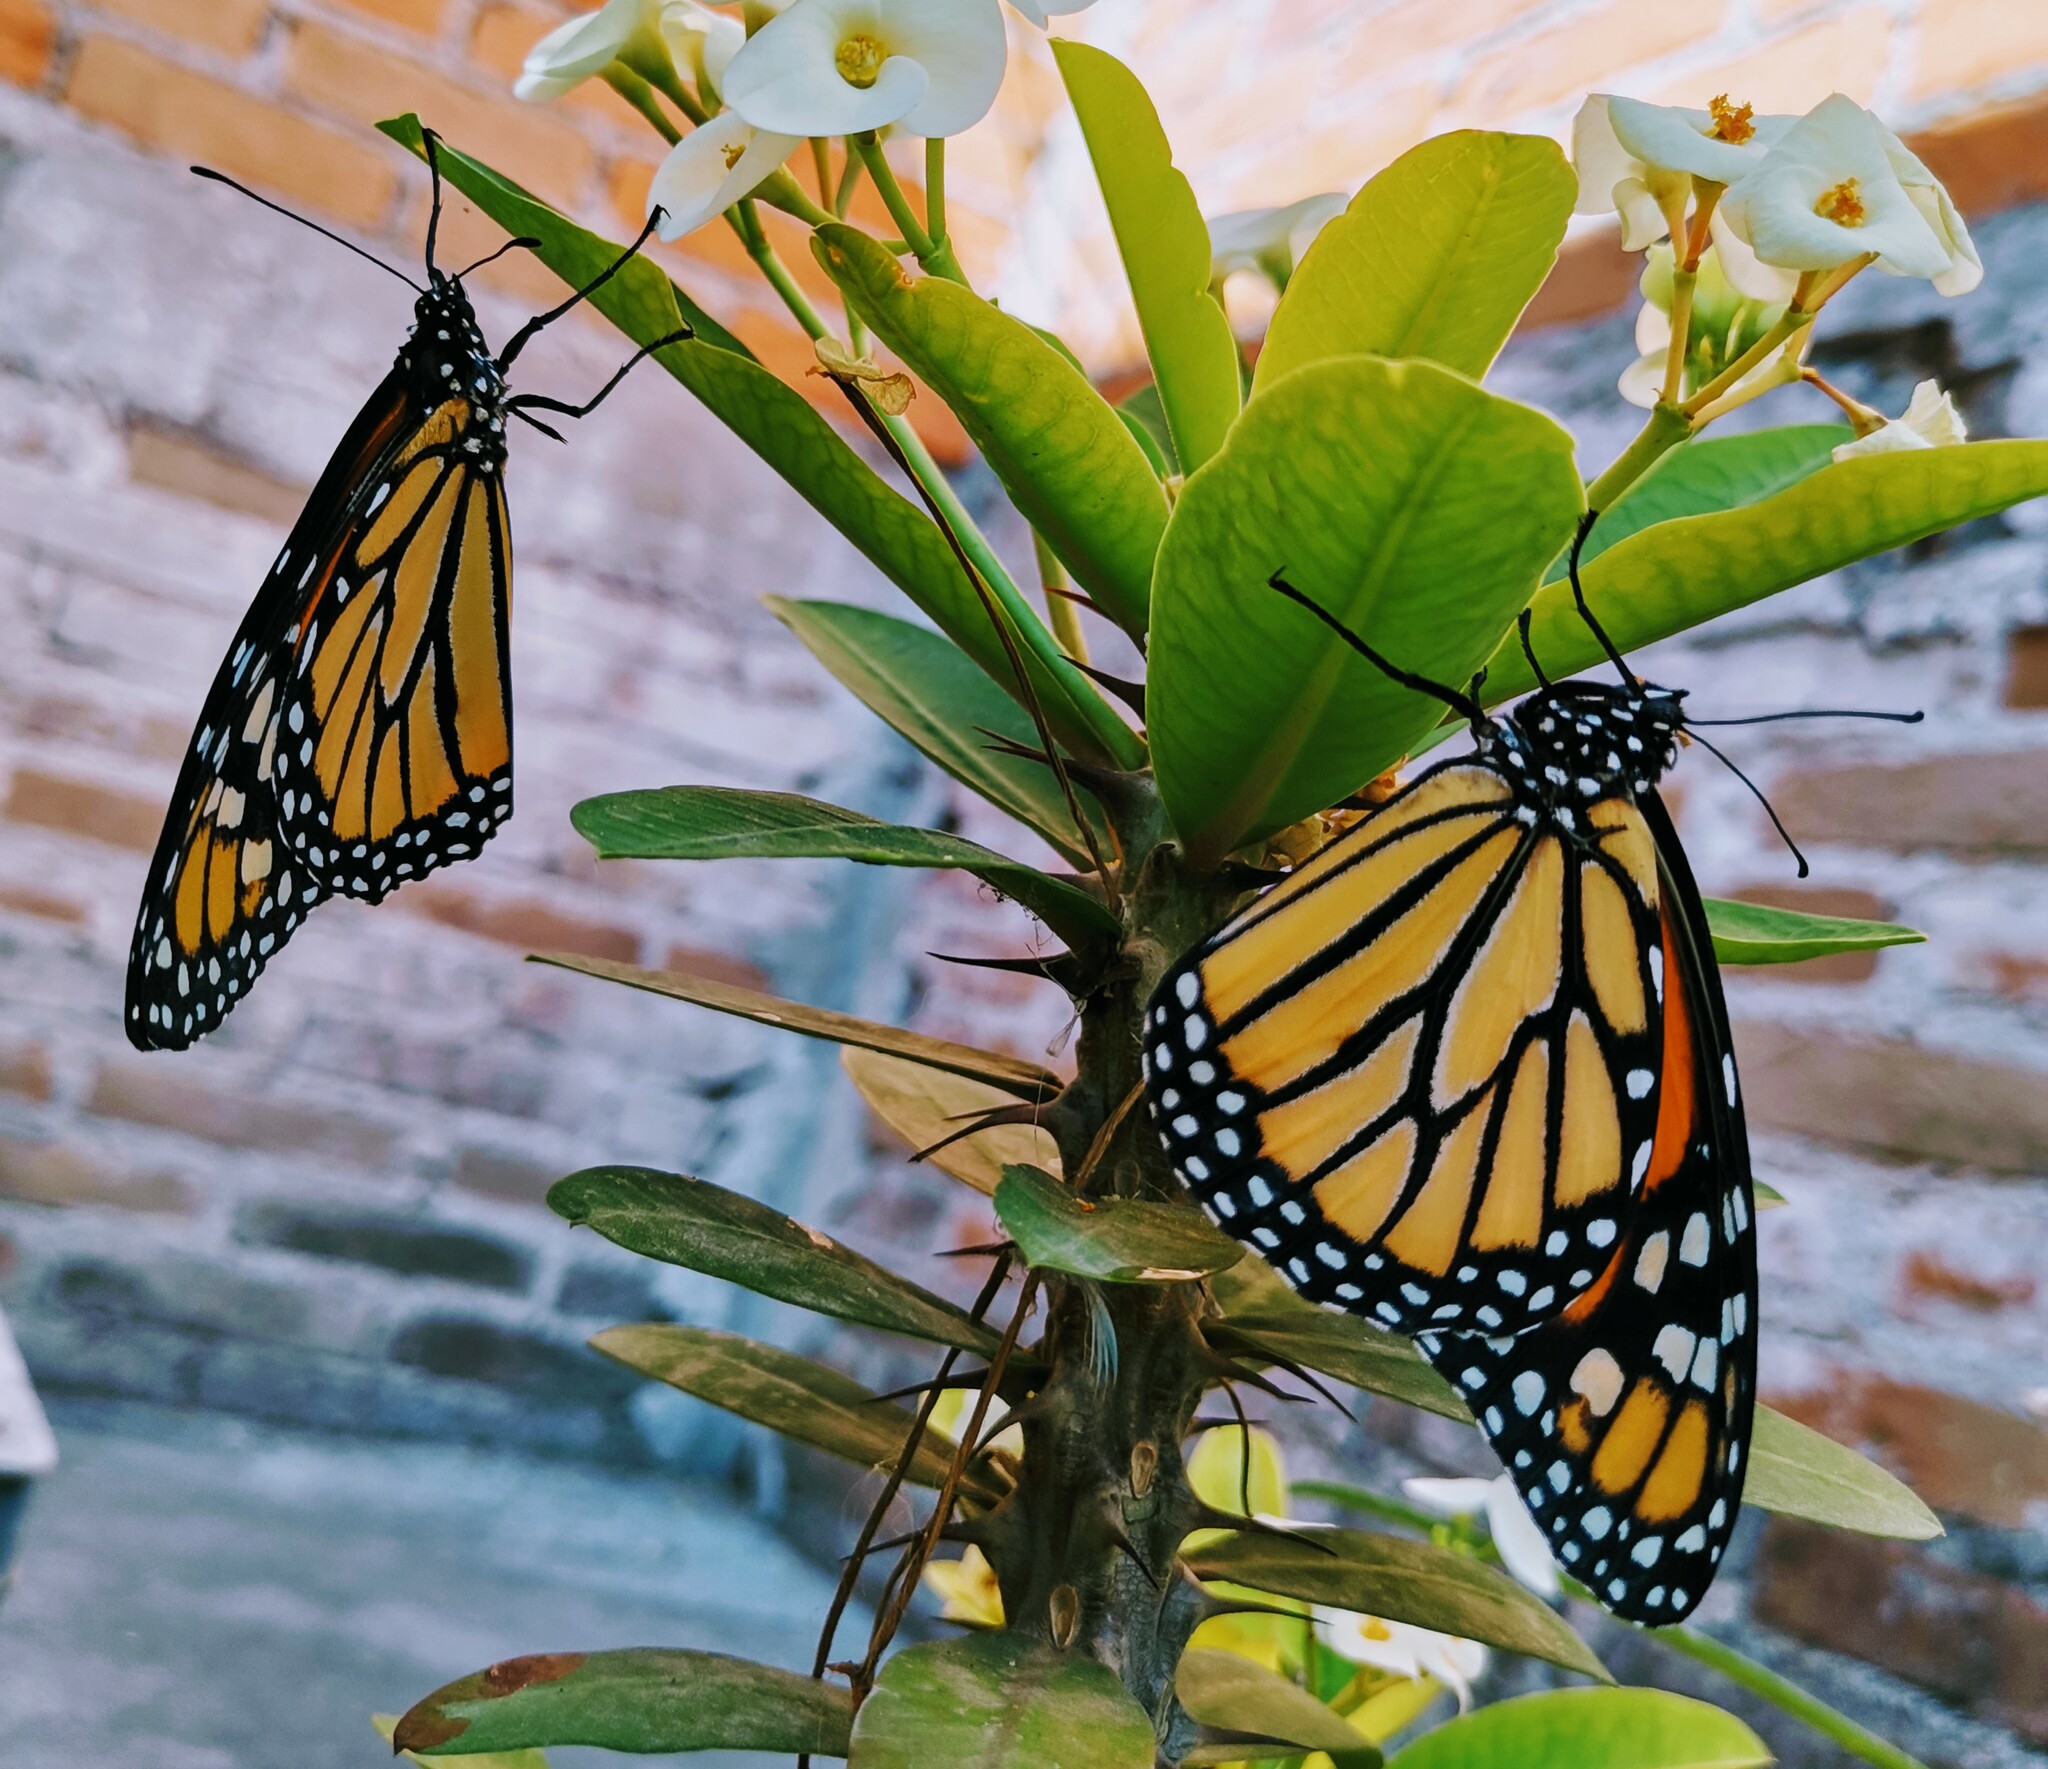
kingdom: Animalia
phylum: Arthropoda
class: Insecta
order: Lepidoptera
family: Nymphalidae
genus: Danaus
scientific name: Danaus plexippus
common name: Monarch
